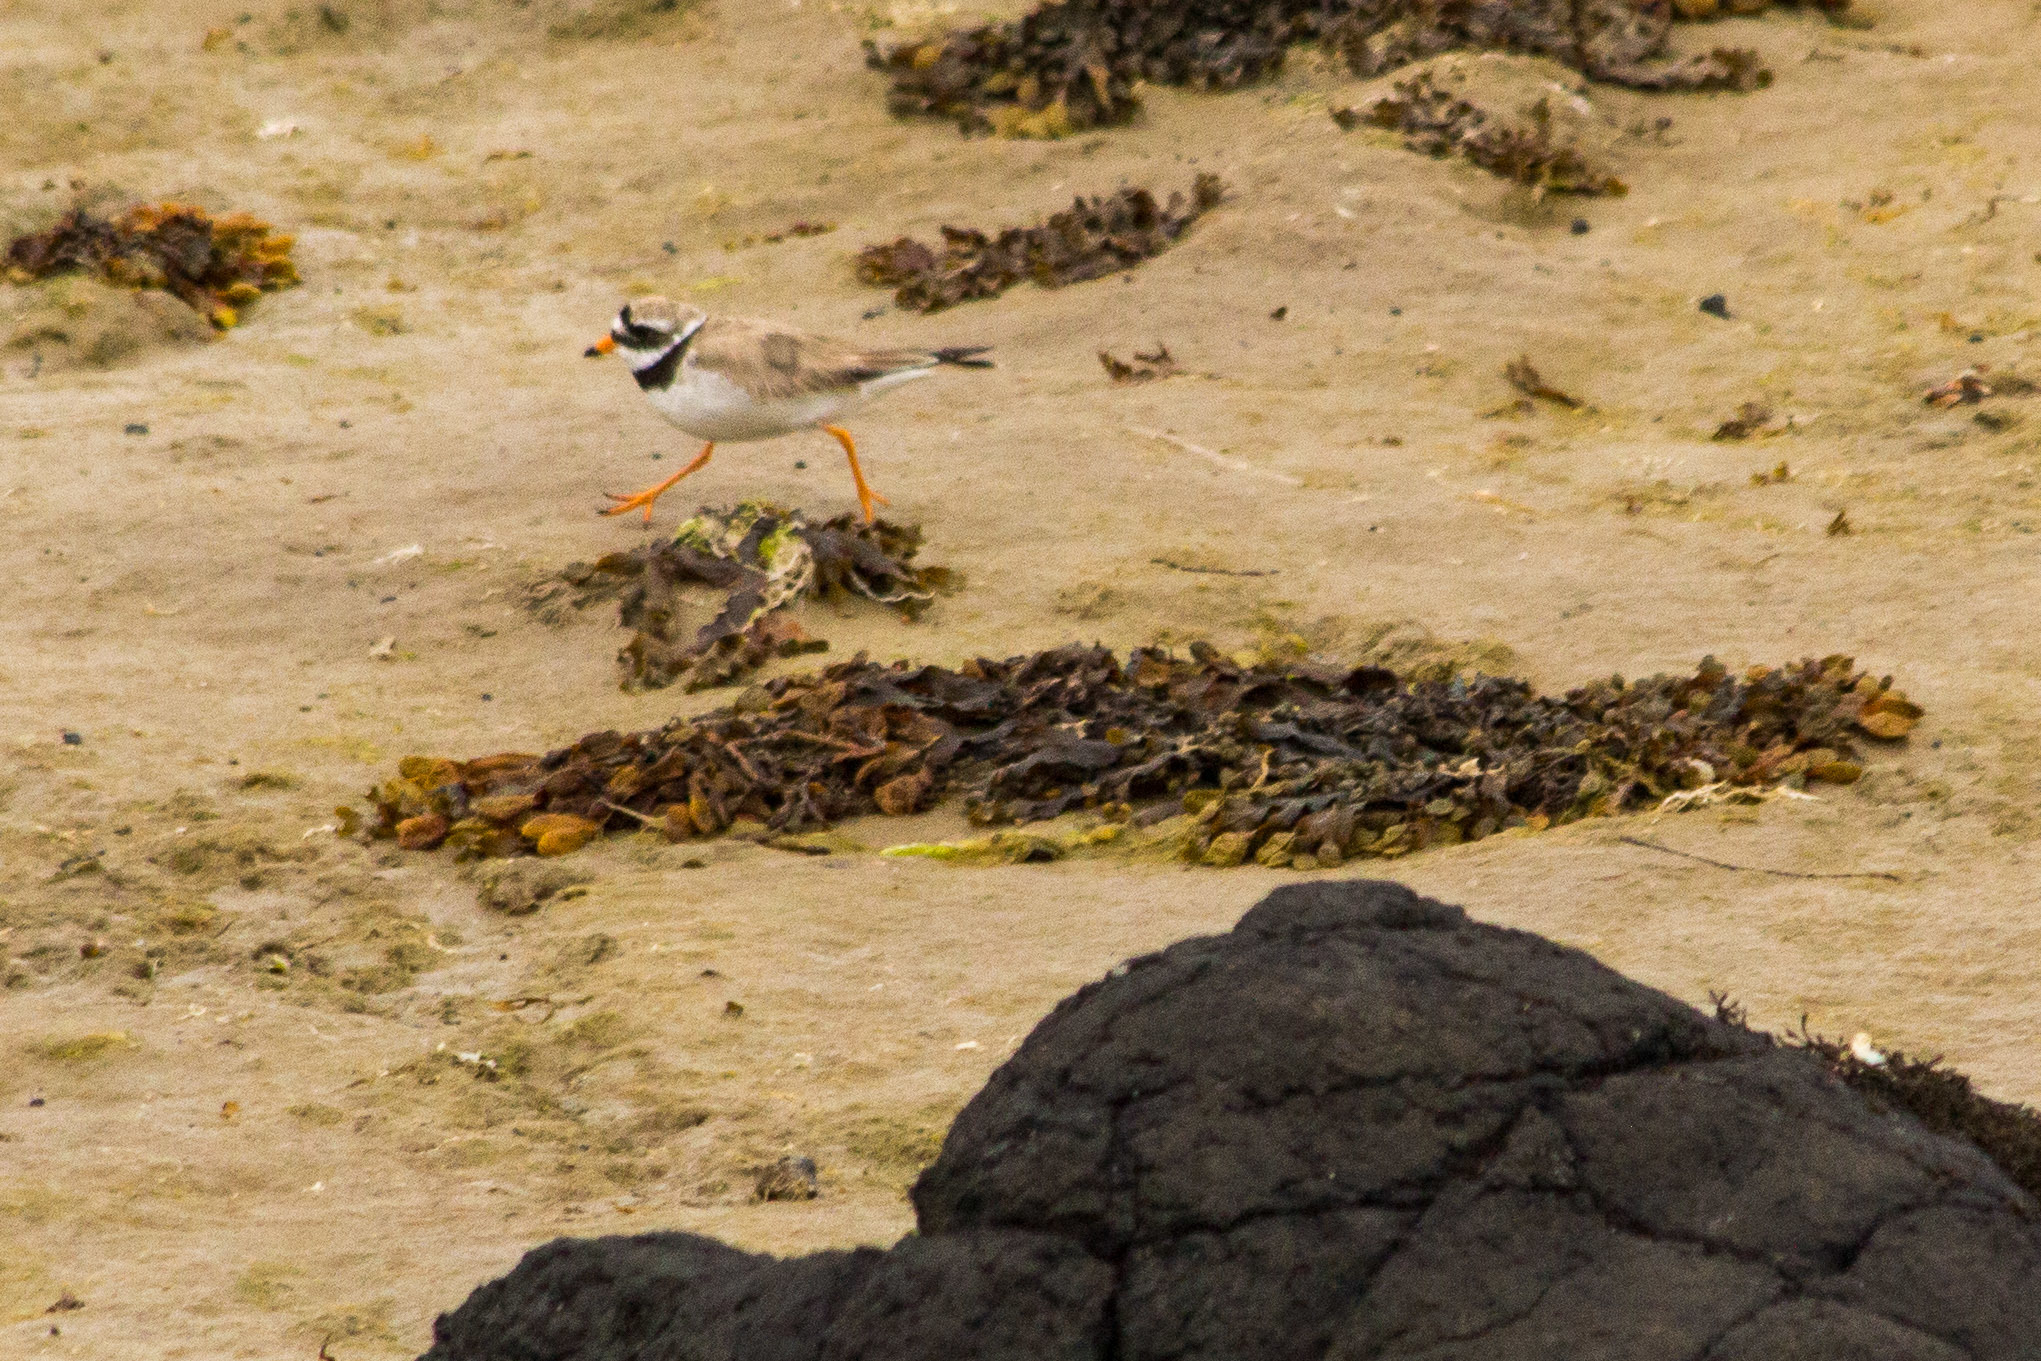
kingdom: Animalia
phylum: Chordata
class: Aves
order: Charadriiformes
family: Charadriidae
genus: Charadrius
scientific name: Charadrius hiaticula
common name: Common ringed plover
